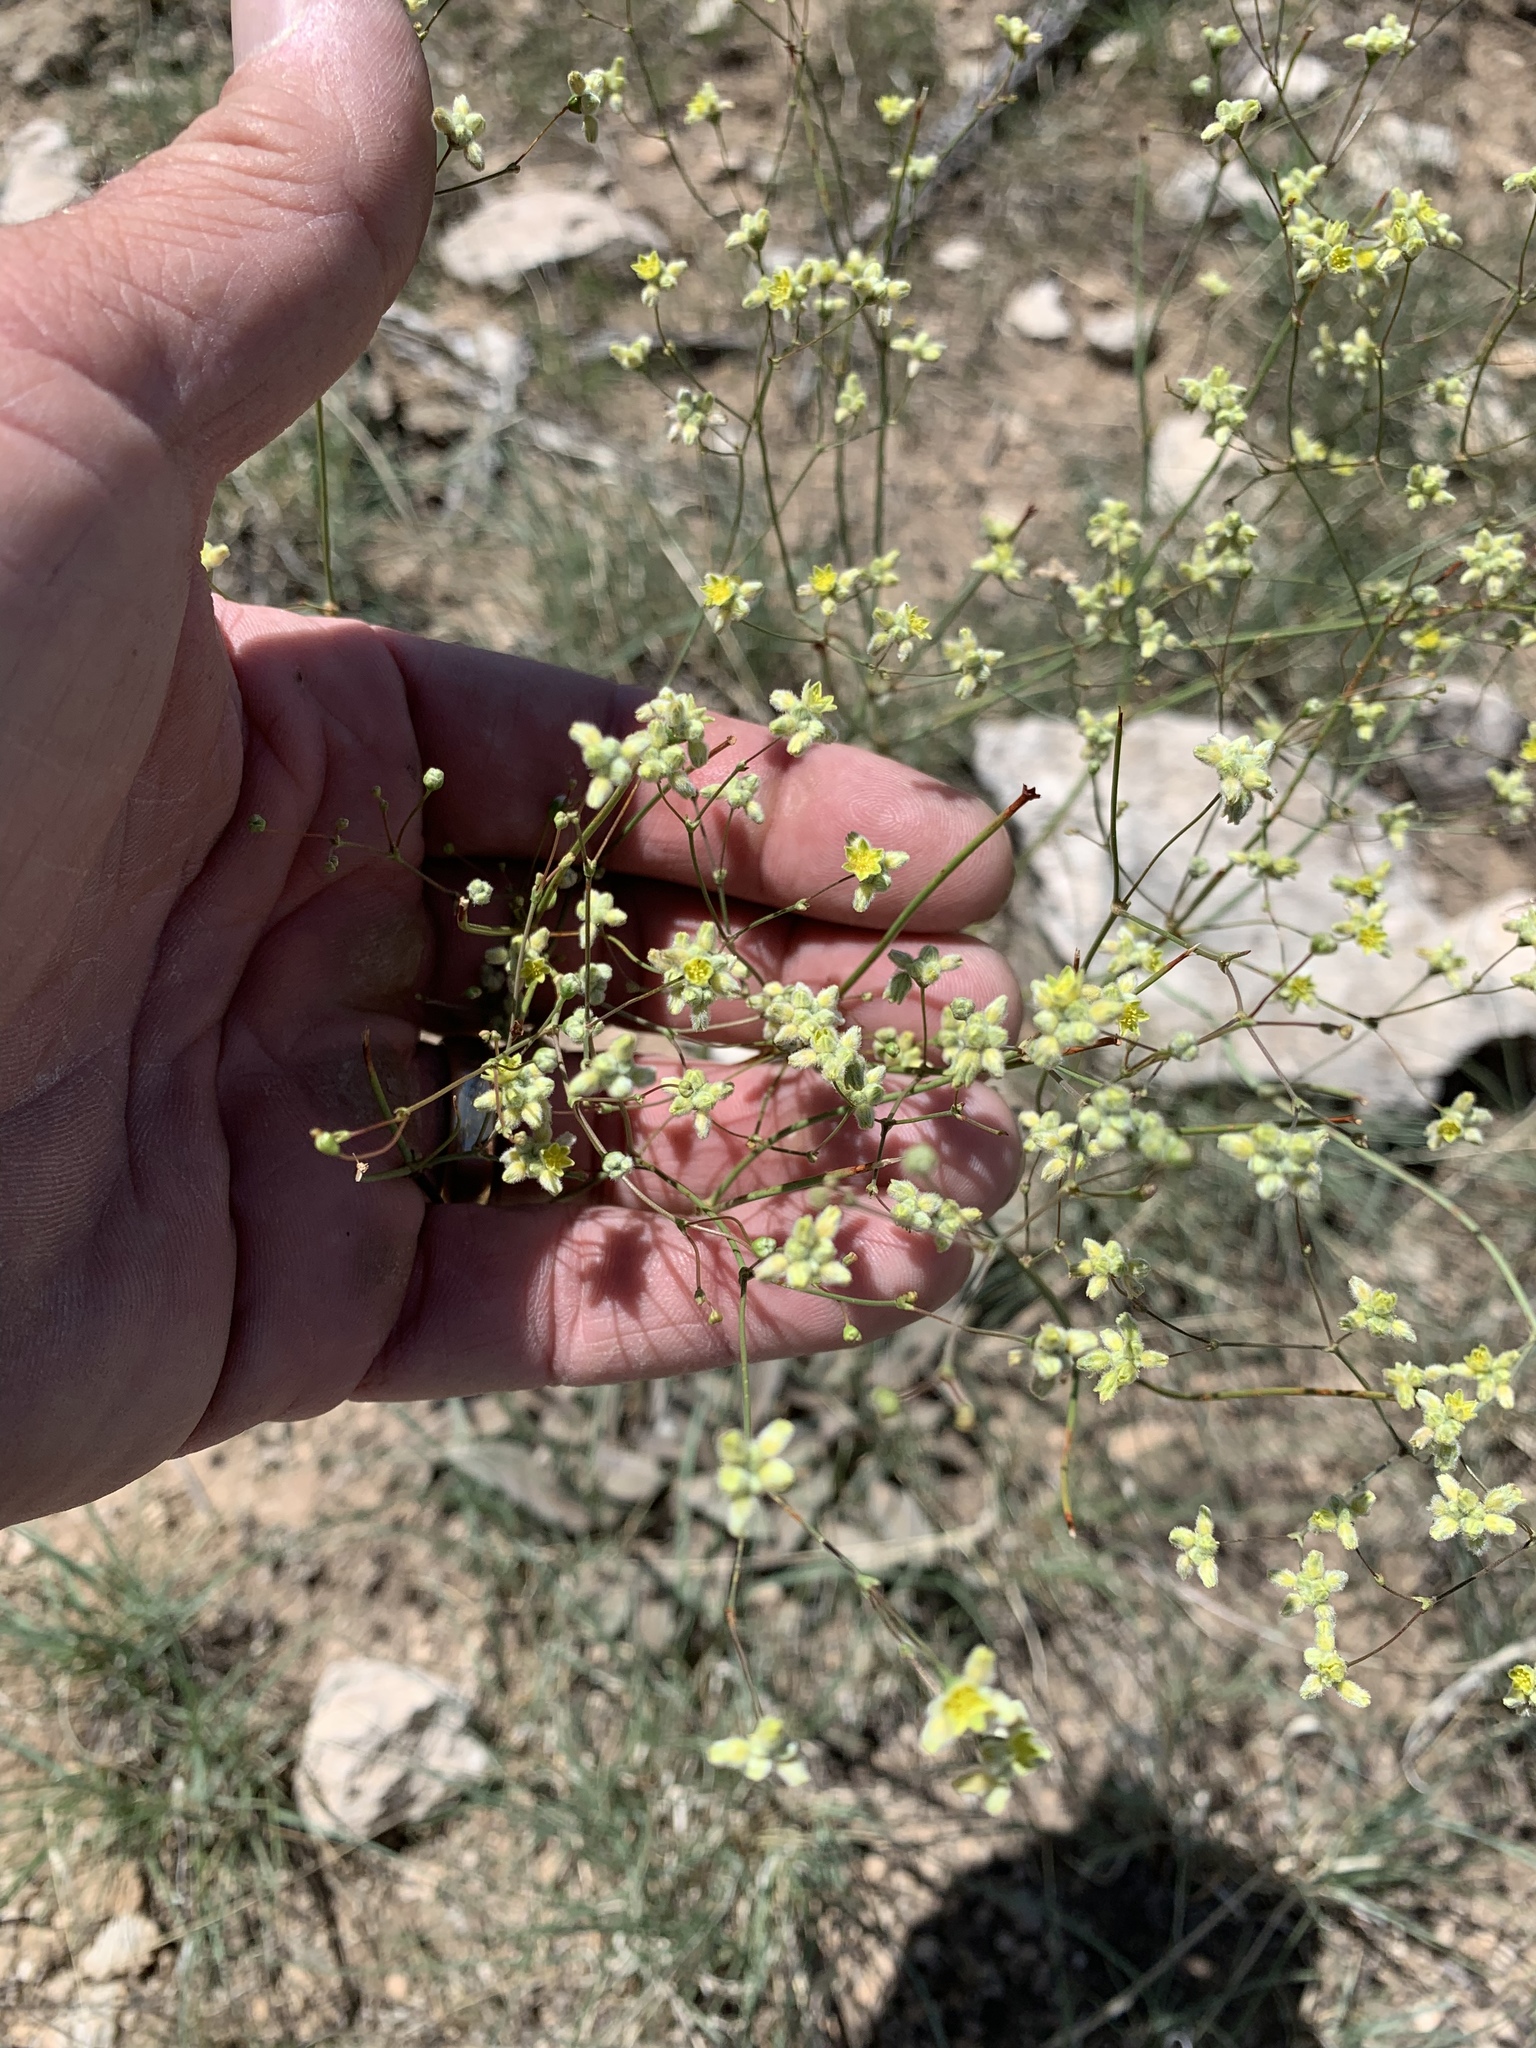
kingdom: Plantae
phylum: Tracheophyta
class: Magnoliopsida
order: Caryophyllales
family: Polygonaceae
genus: Eriogonum
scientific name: Eriogonum havardii
